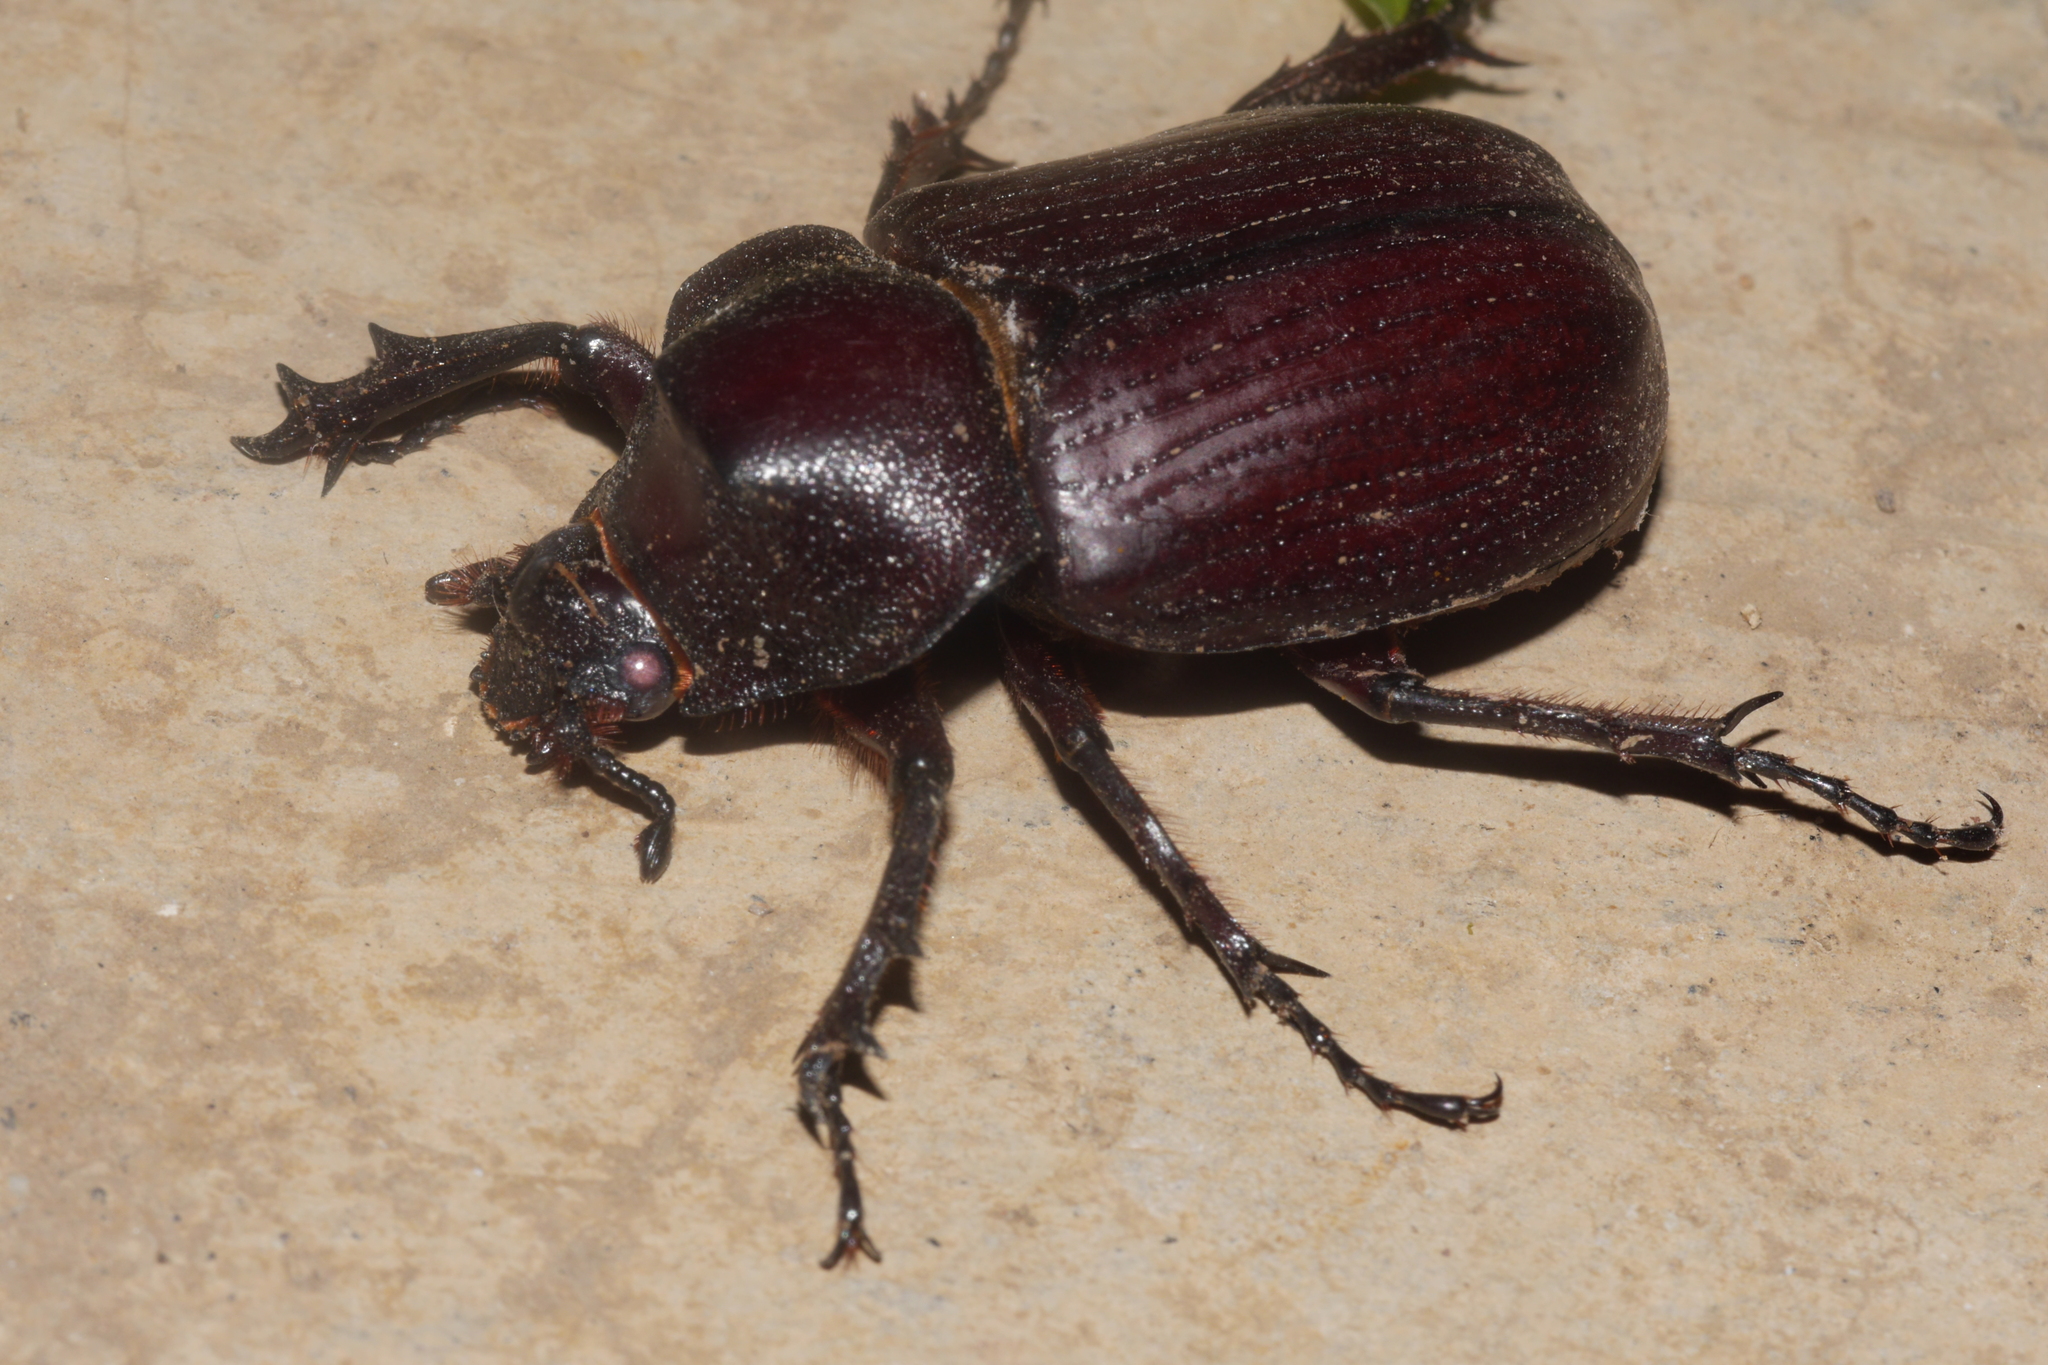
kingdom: Animalia
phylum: Arthropoda
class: Insecta
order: Coleoptera
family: Scarabaeidae
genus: Coelosis
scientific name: Coelosis biloba
